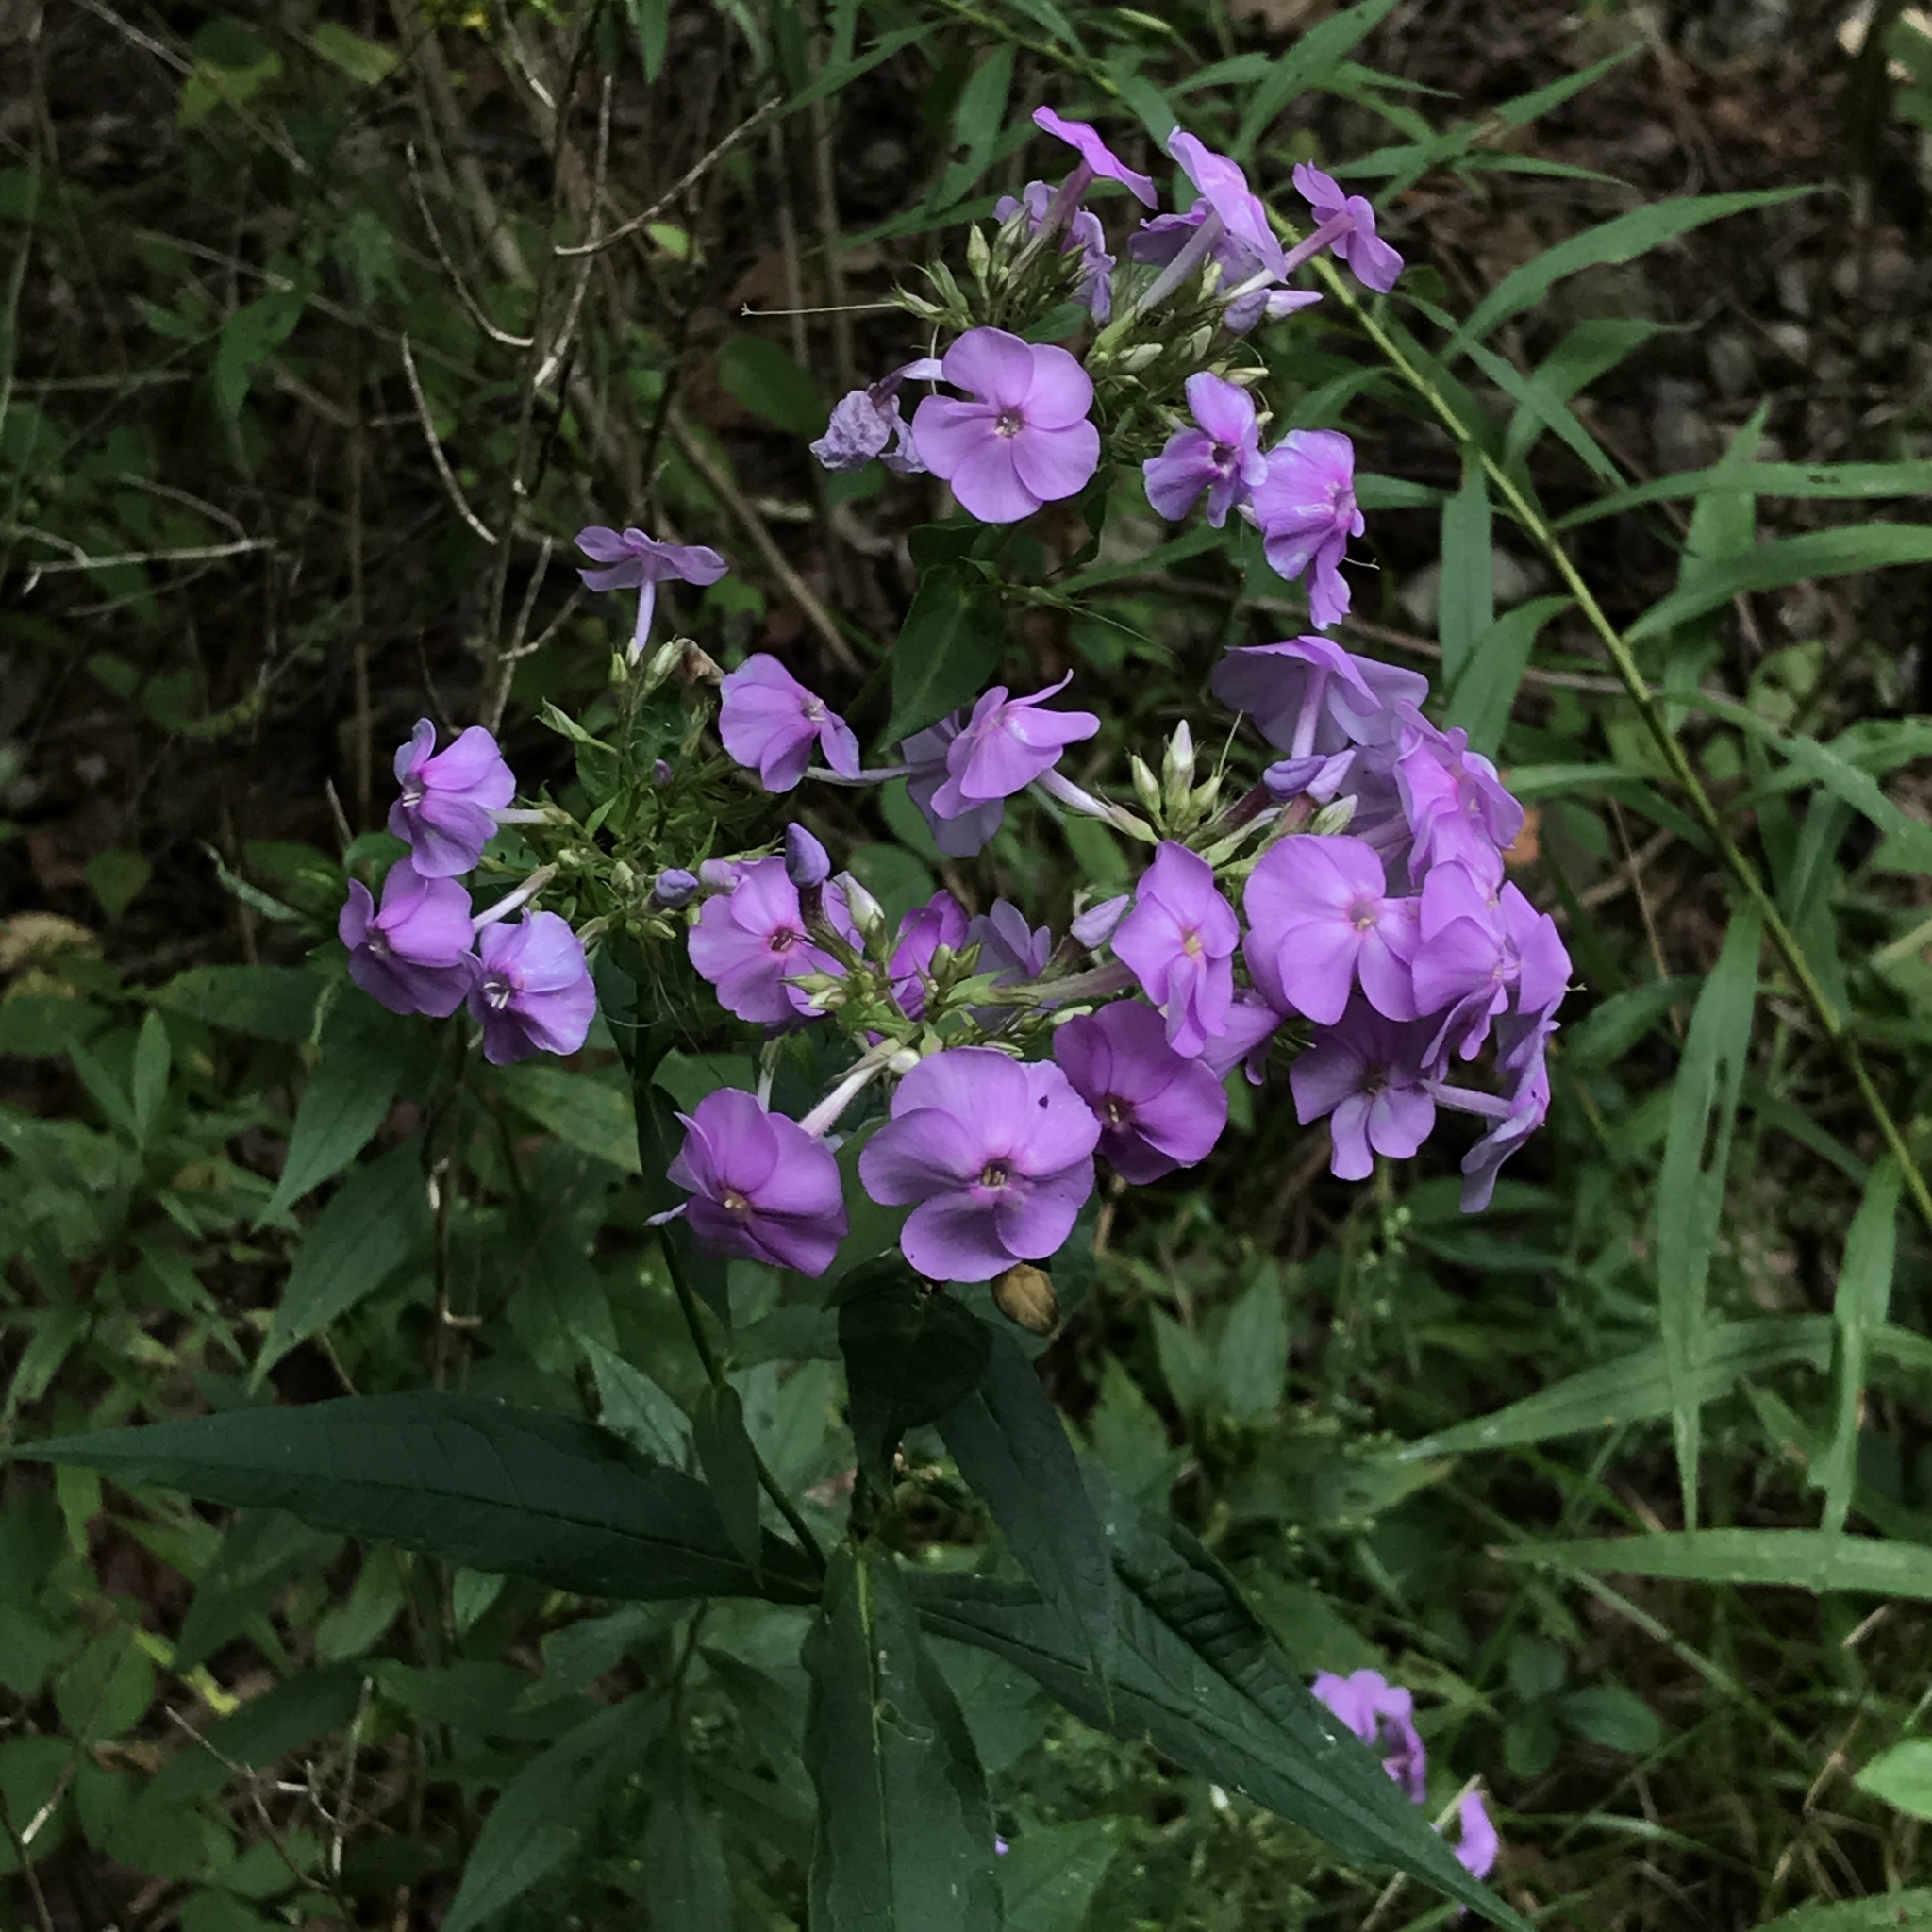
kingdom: Plantae
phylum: Tracheophyta
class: Magnoliopsida
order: Ericales
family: Polemoniaceae
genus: Phlox
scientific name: Phlox paniculata
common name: Fall phlox
